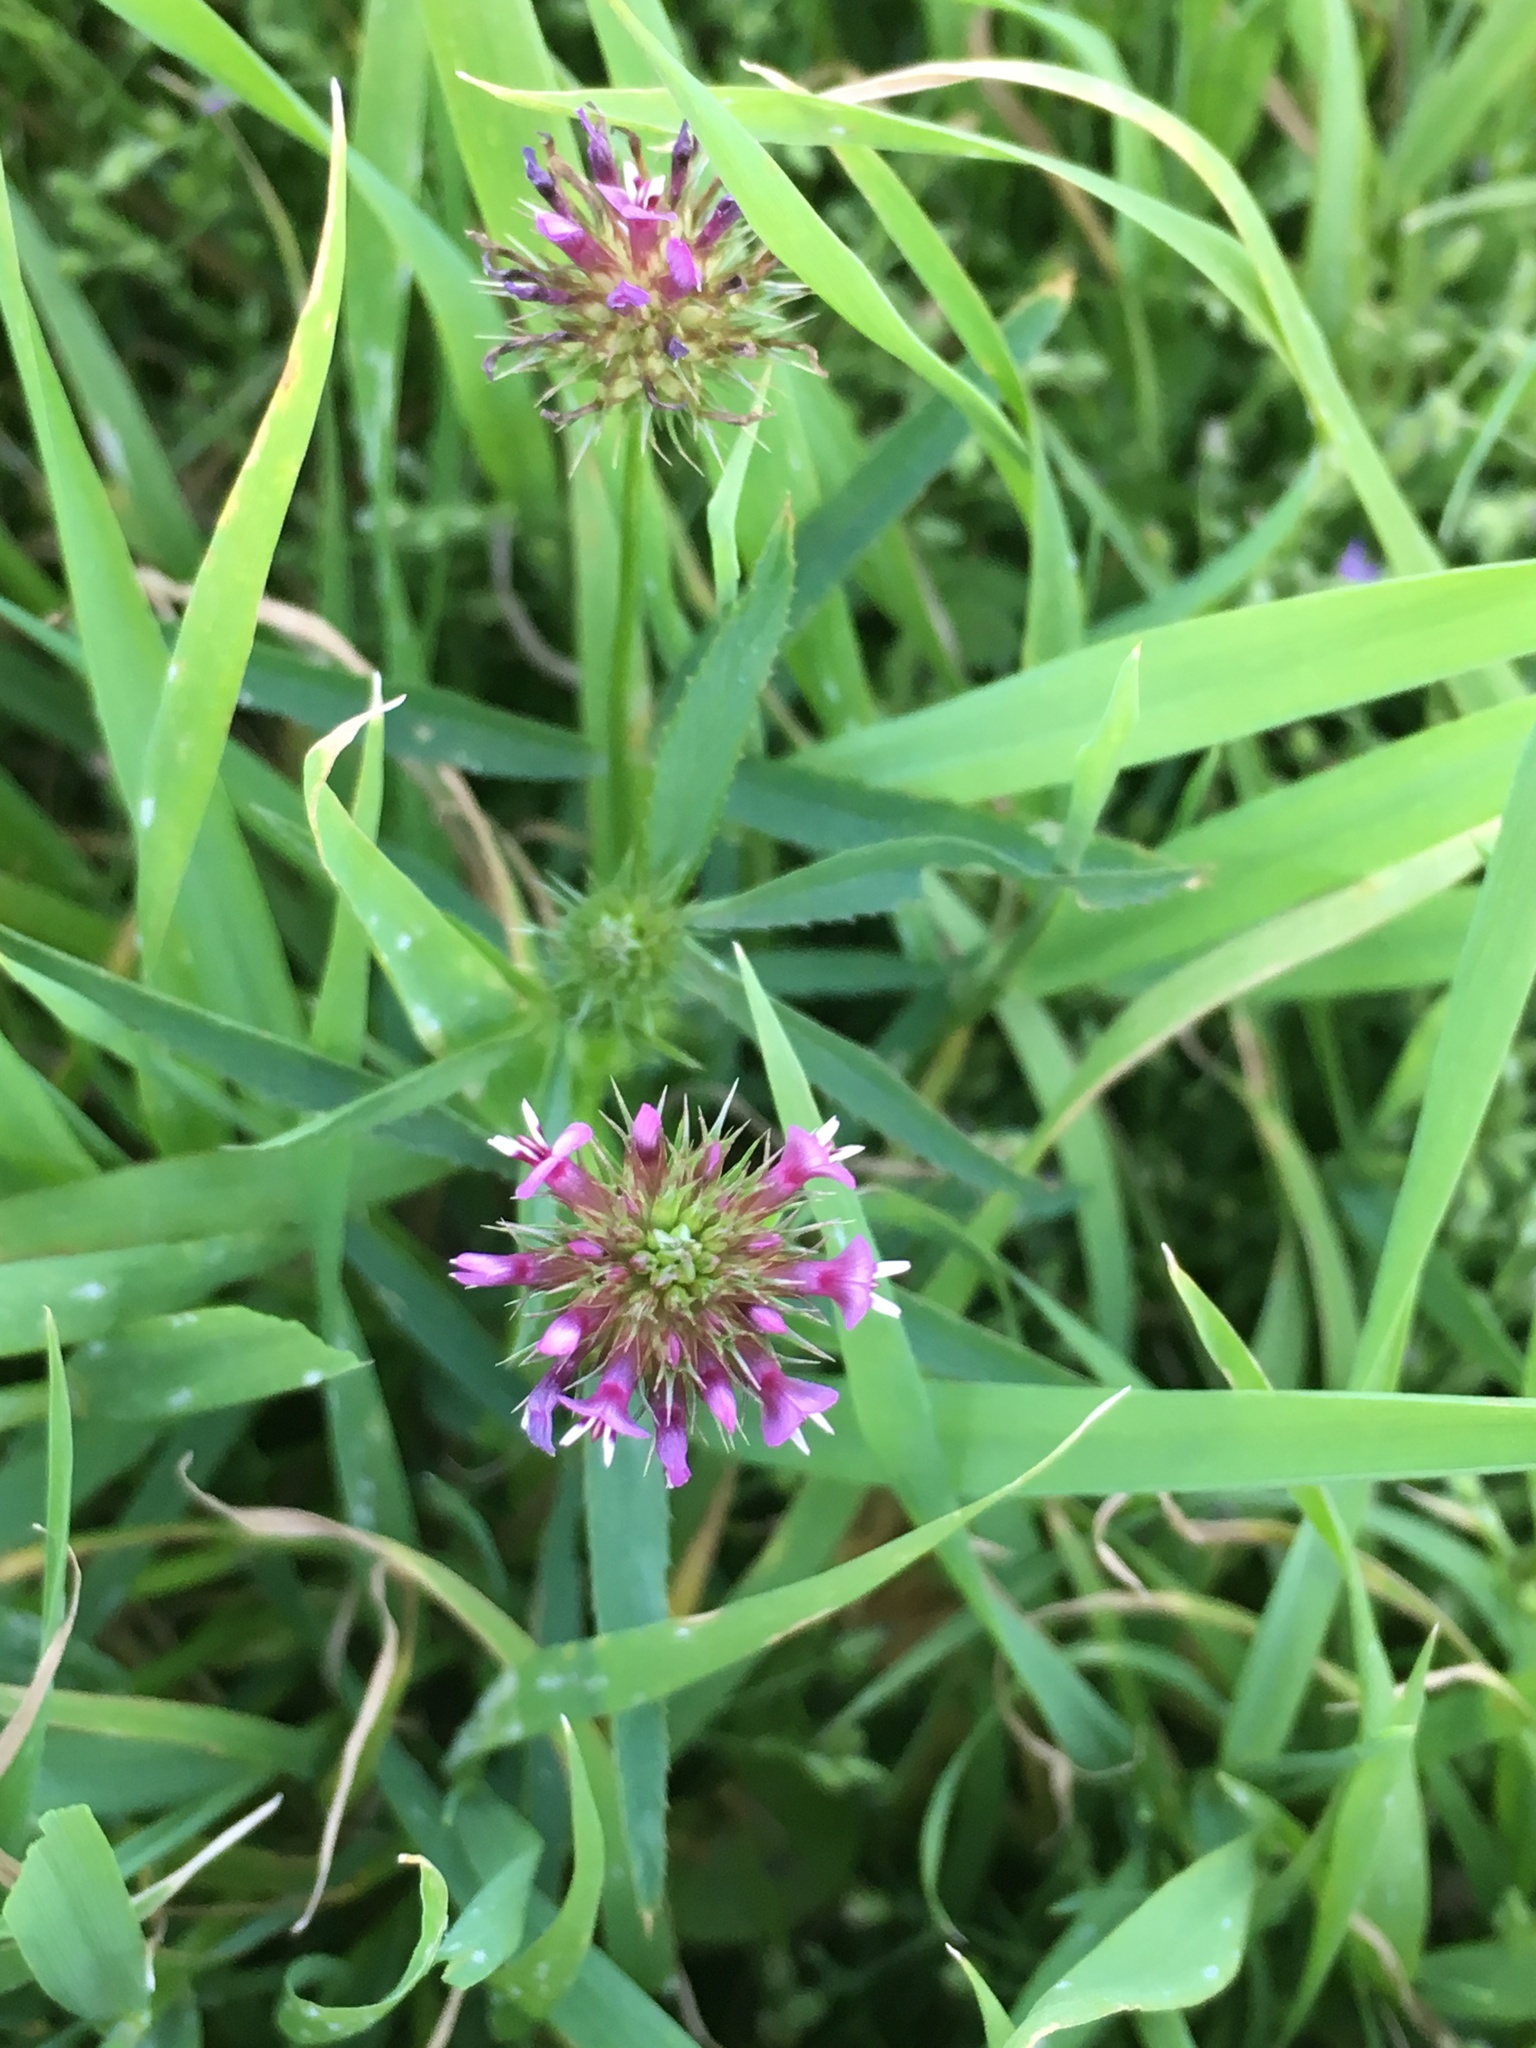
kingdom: Plantae
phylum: Tracheophyta
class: Magnoliopsida
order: Fabales
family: Fabaceae
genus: Trifolium
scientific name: Trifolium willdenovii
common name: Tomcat clover
